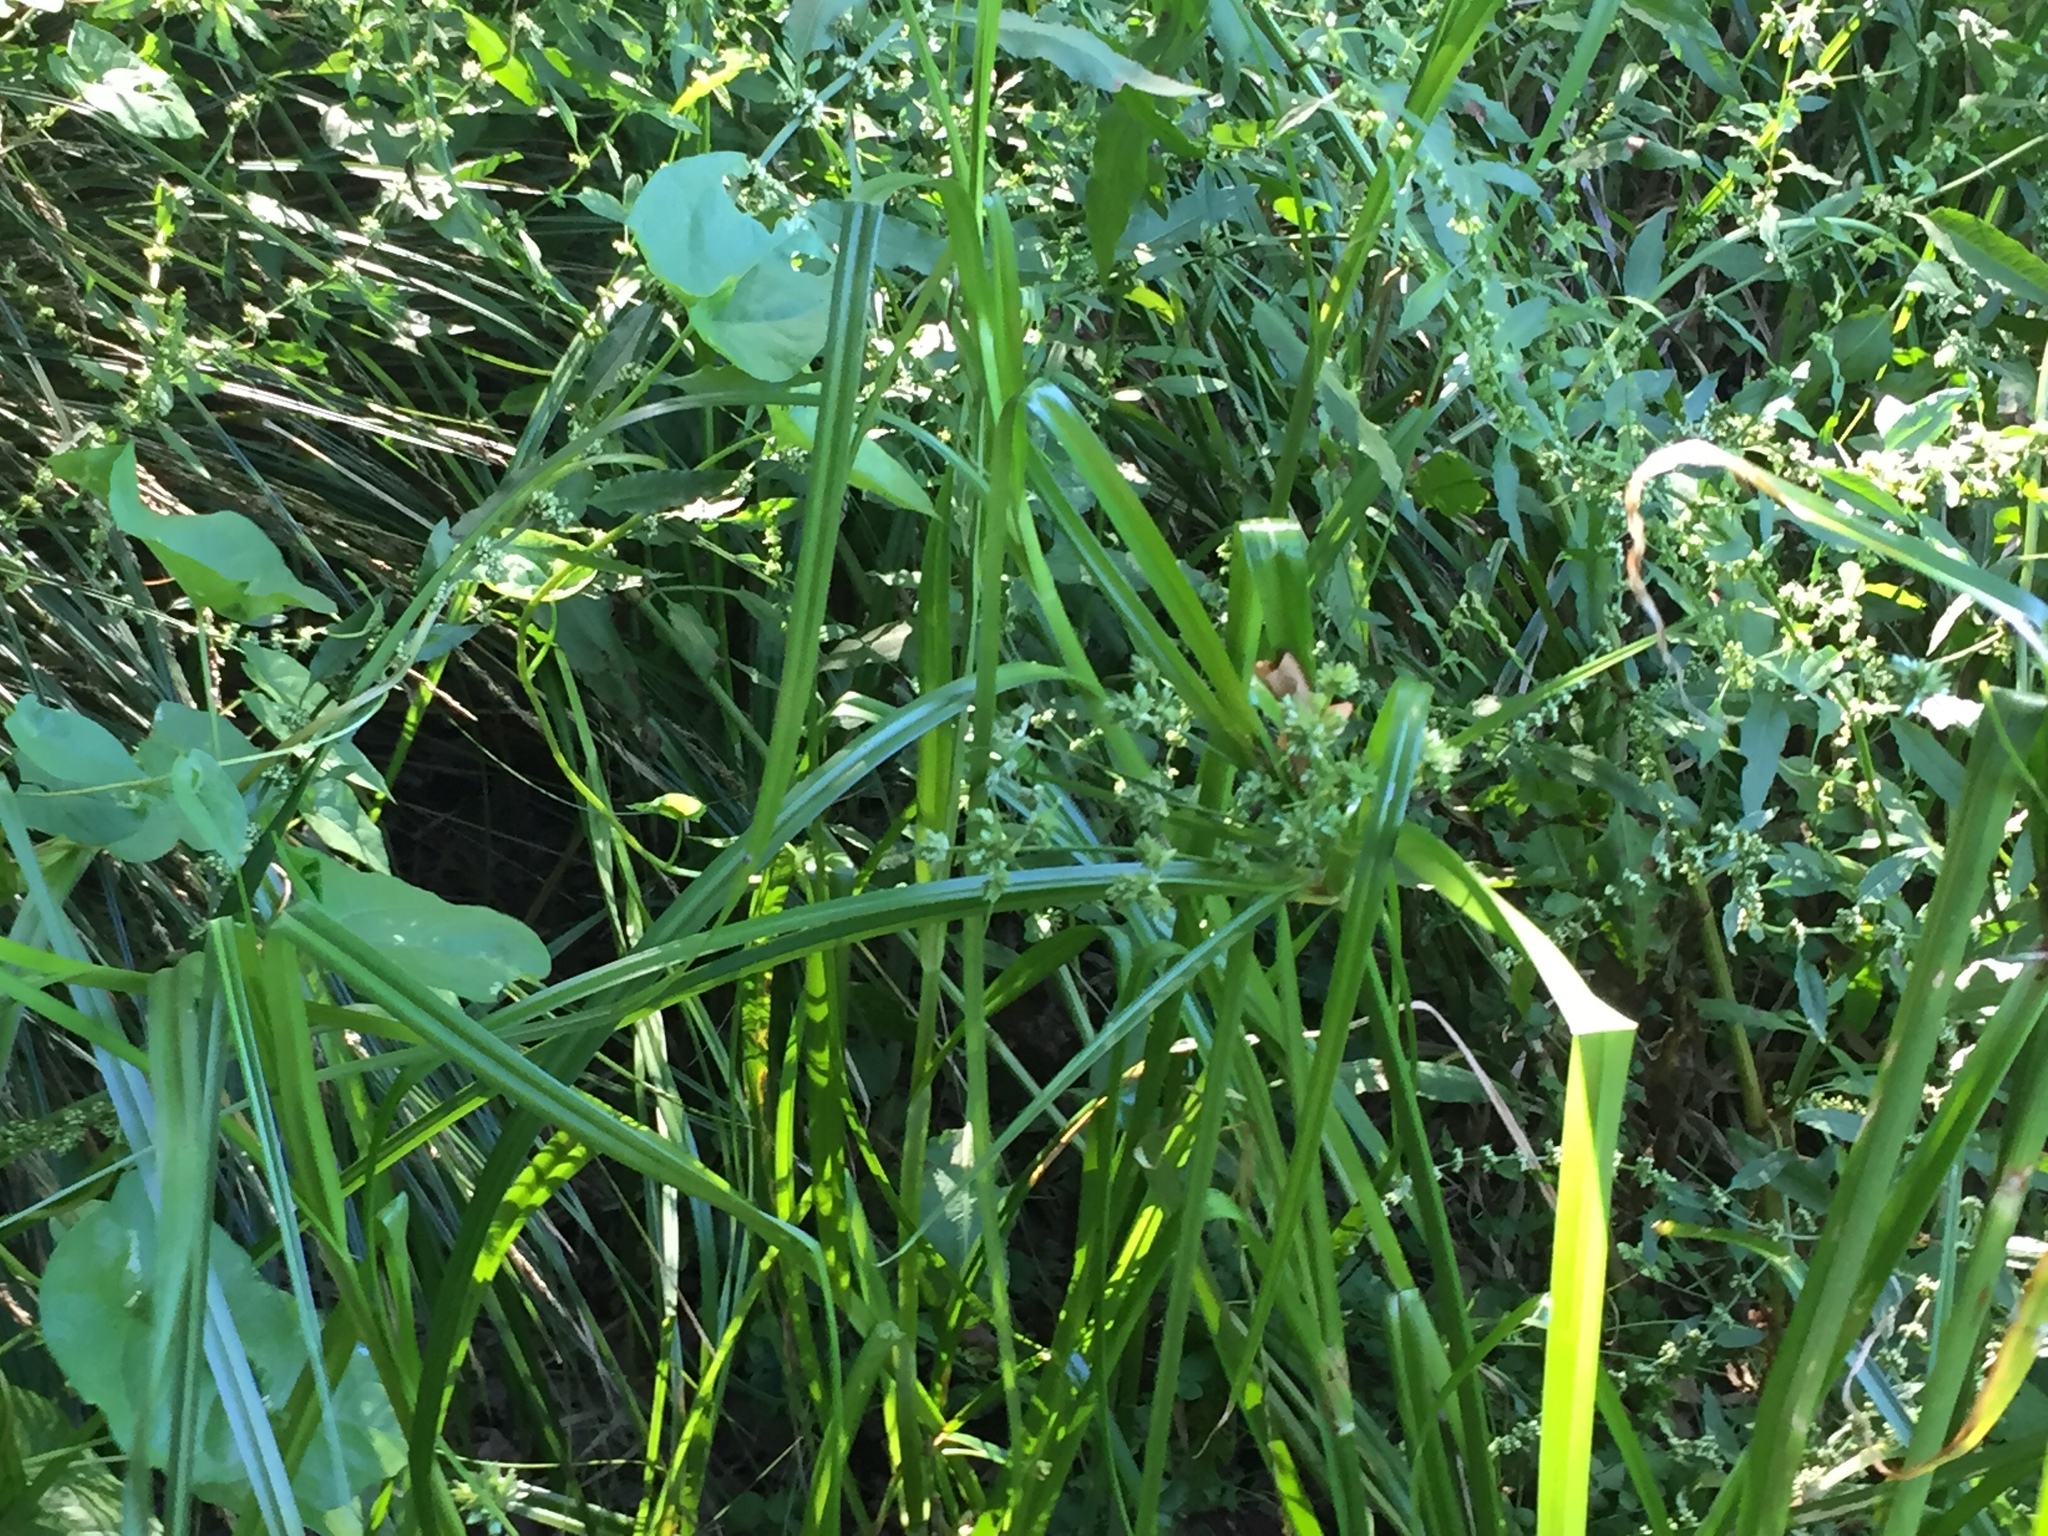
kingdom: Plantae
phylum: Tracheophyta
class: Liliopsida
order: Poales
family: Cyperaceae
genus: Cyperus
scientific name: Cyperus eragrostis
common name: Tall flatsedge
